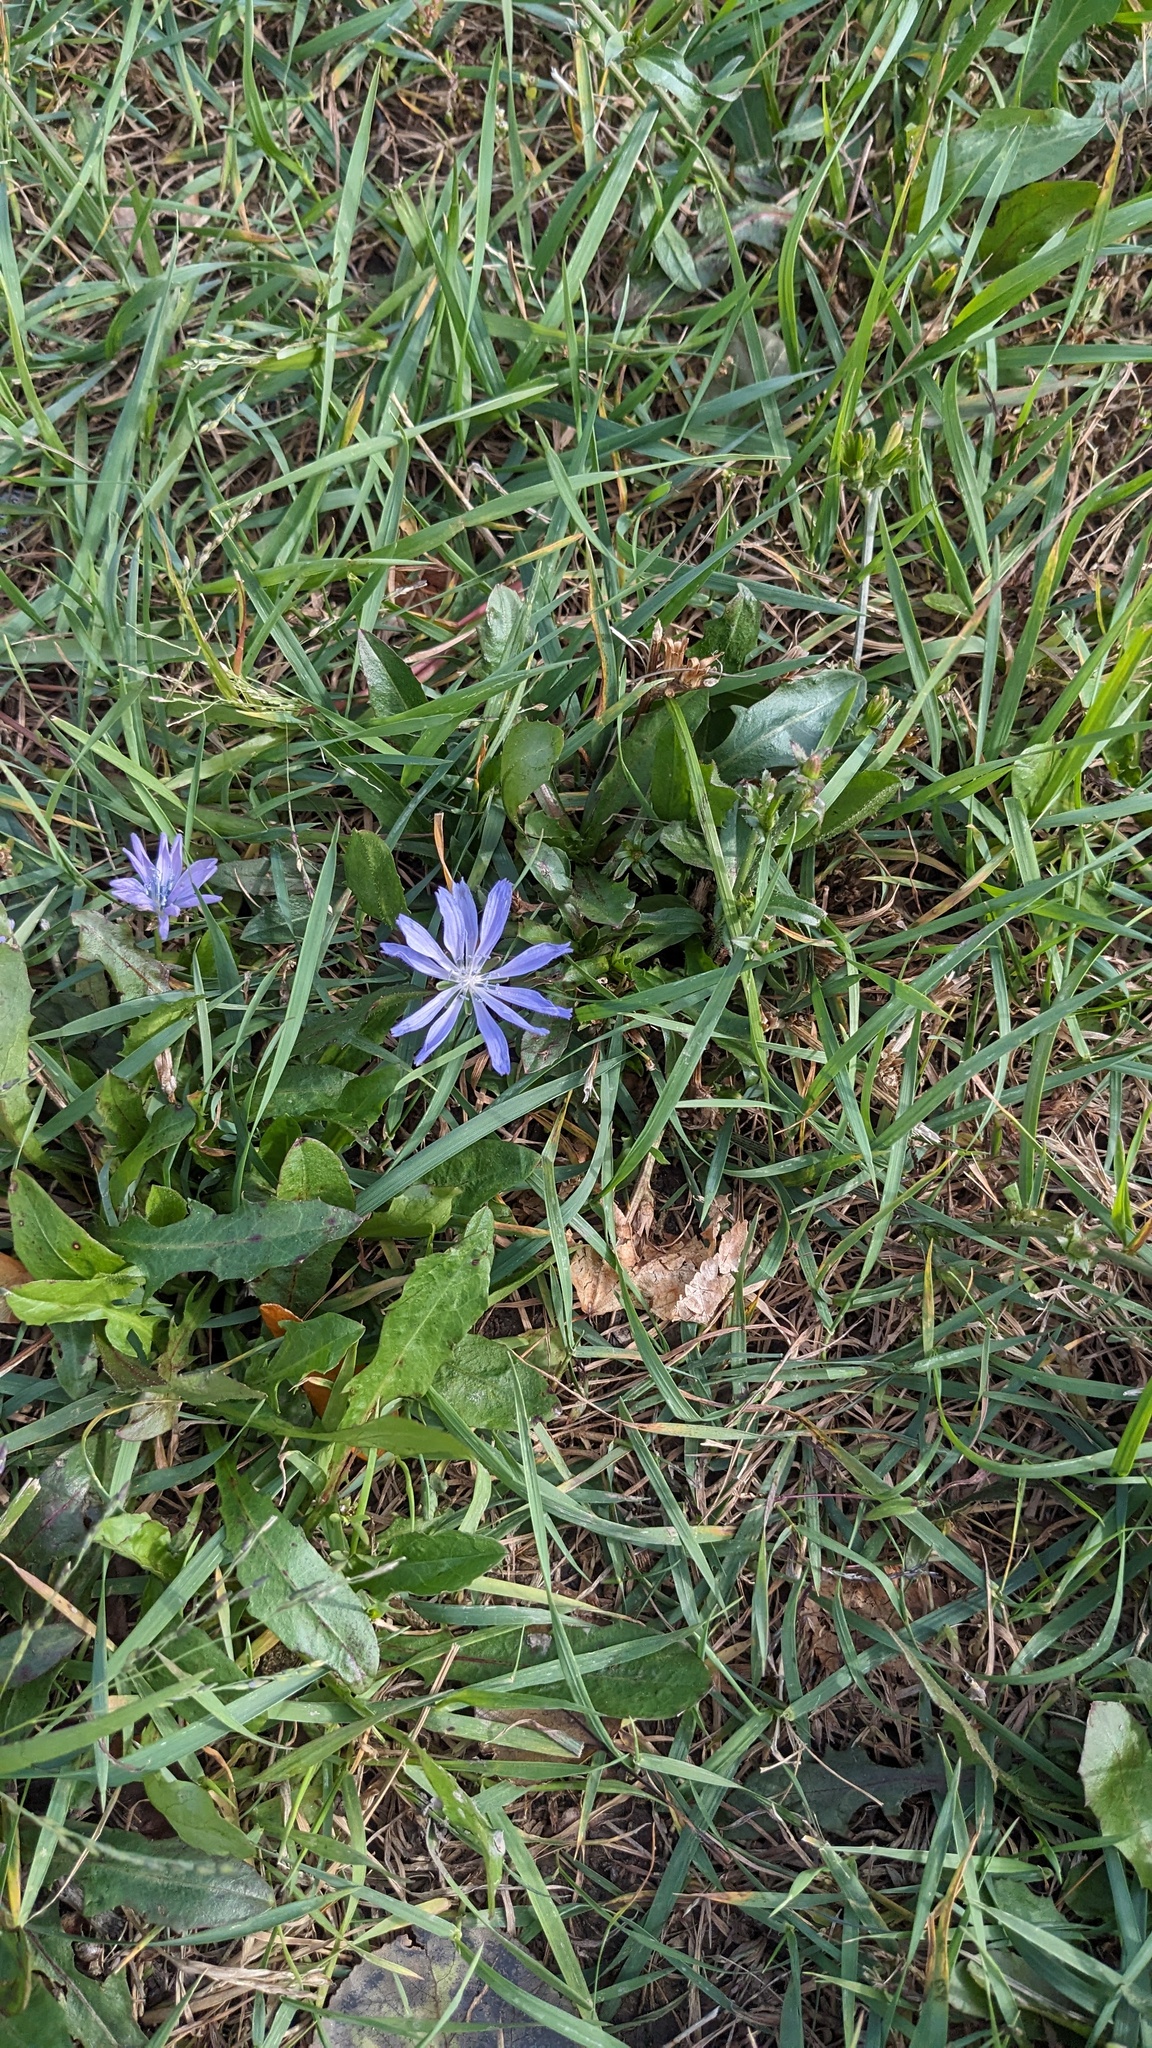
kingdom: Plantae
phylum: Tracheophyta
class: Magnoliopsida
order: Asterales
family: Asteraceae
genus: Cichorium
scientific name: Cichorium intybus
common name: Chicory
